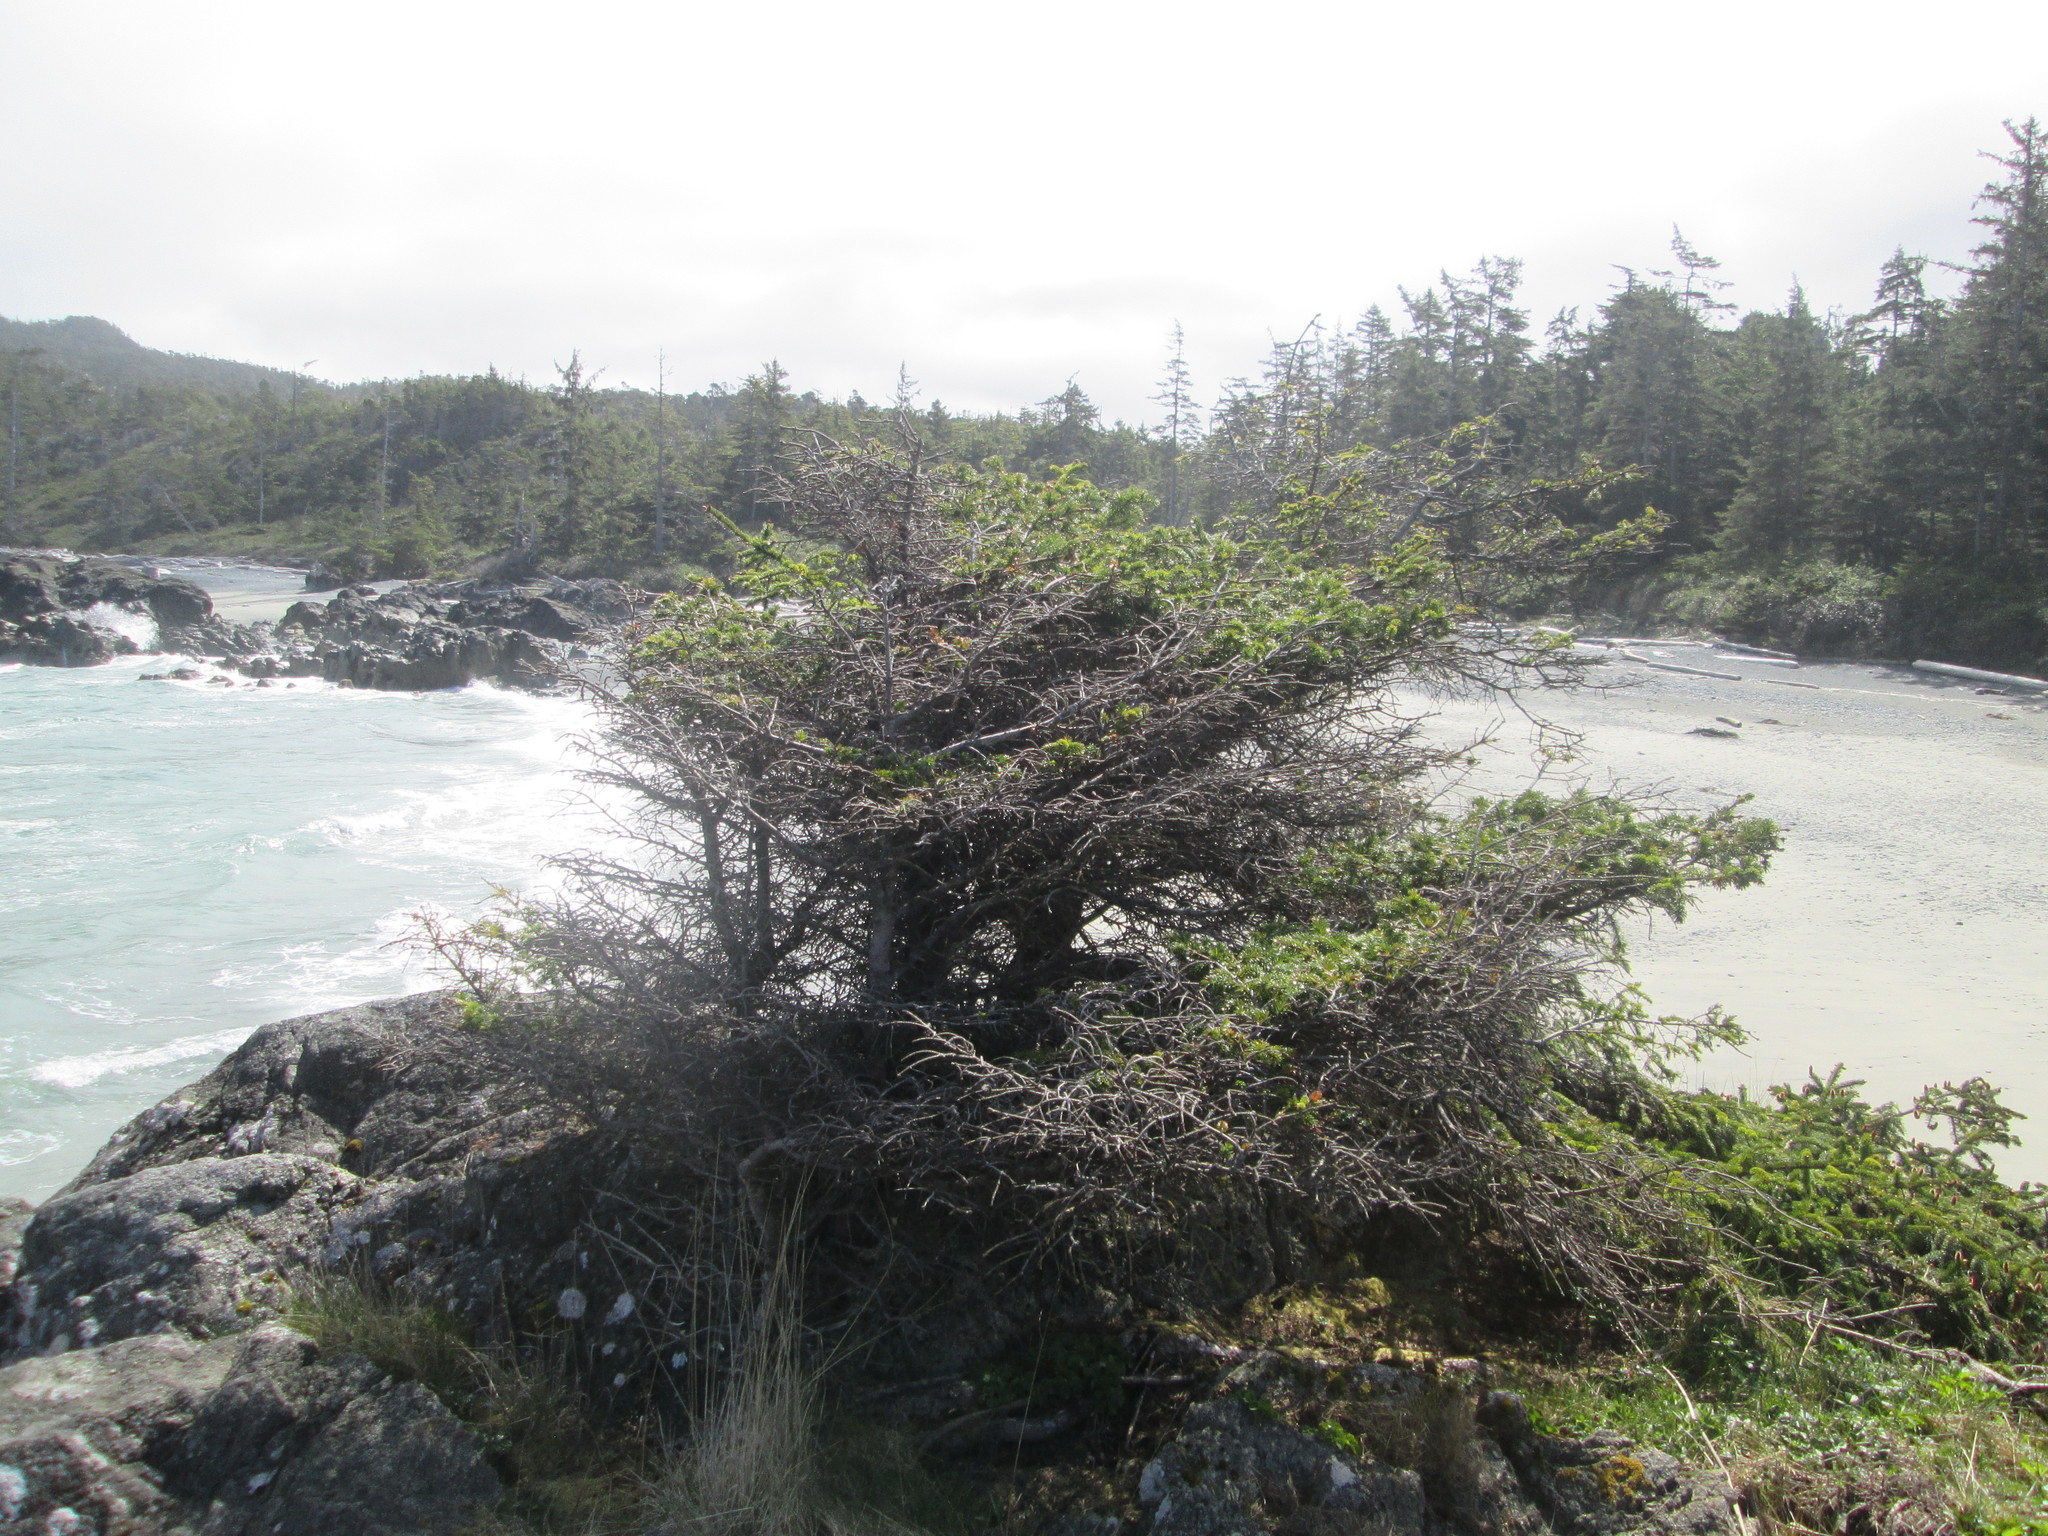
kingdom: Plantae
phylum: Tracheophyta
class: Pinopsida
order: Pinales
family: Pinaceae
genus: Picea
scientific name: Picea sitchensis
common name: Sitka spruce
